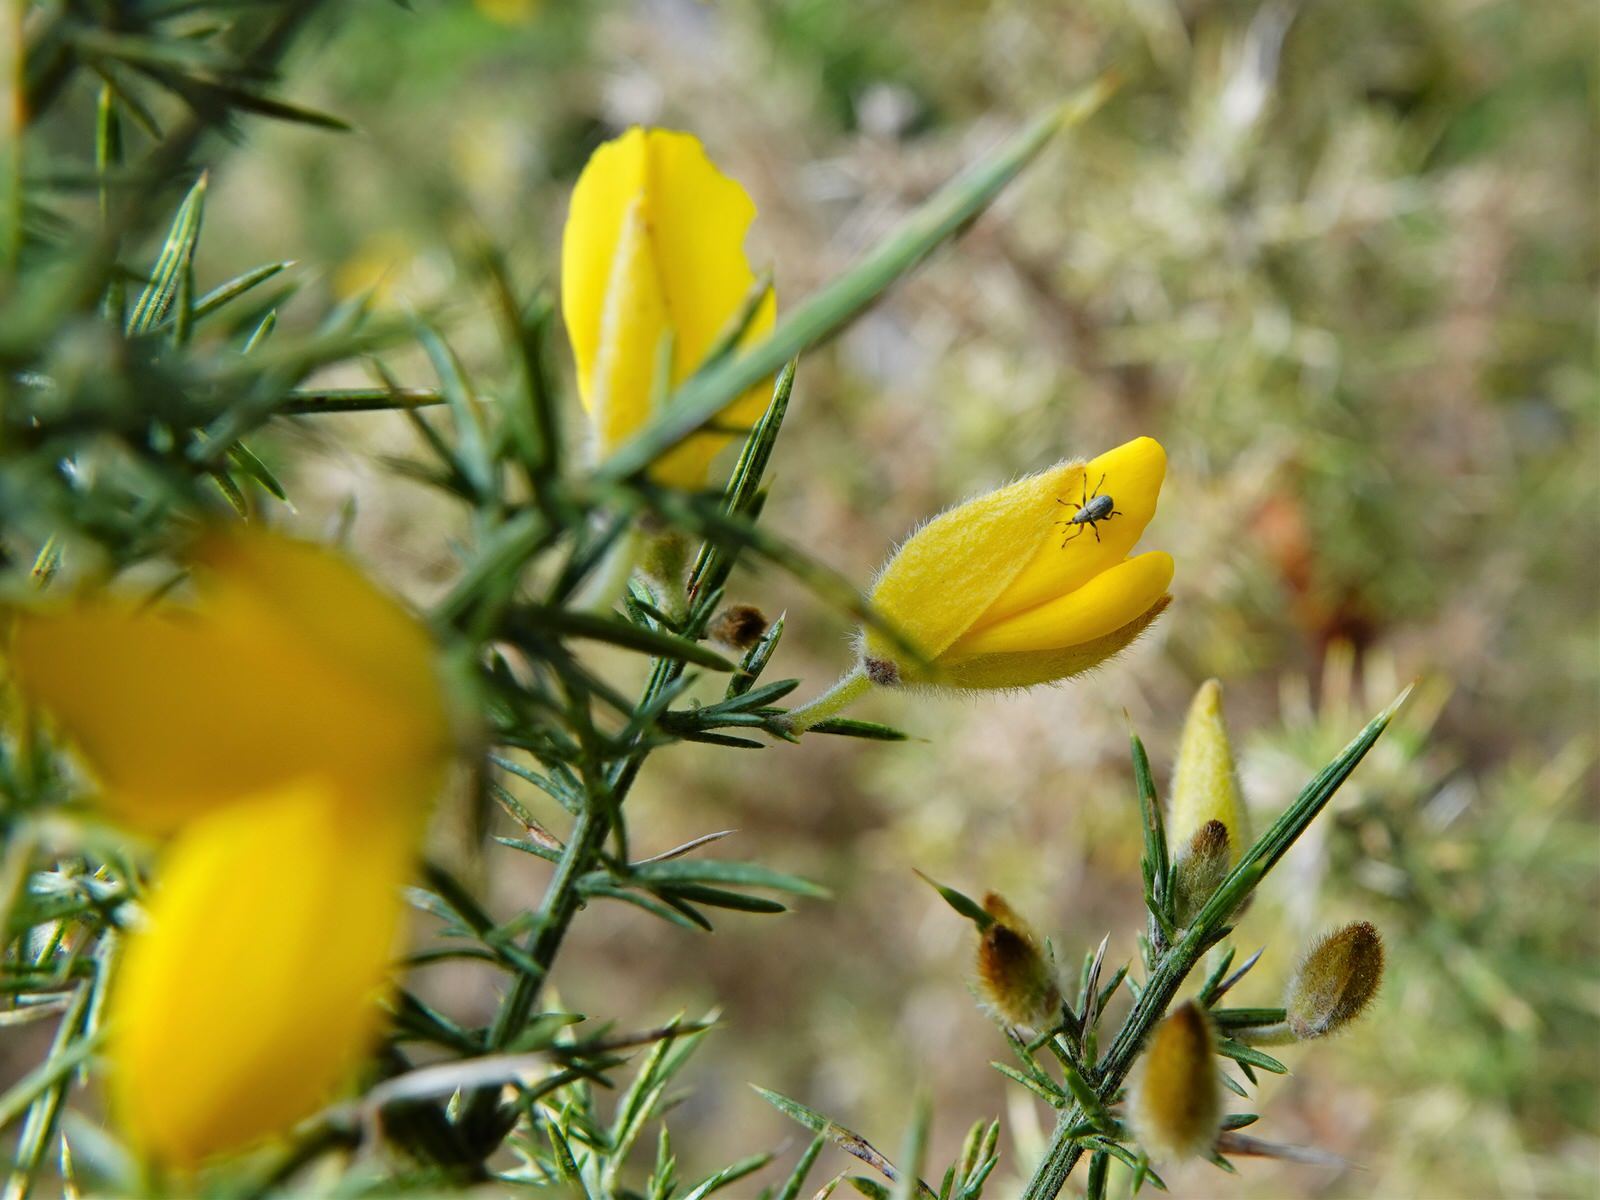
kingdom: Animalia
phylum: Arthropoda
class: Insecta
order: Coleoptera
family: Brentidae
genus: Exapion
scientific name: Exapion ulicis
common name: Gorse seed weevil
